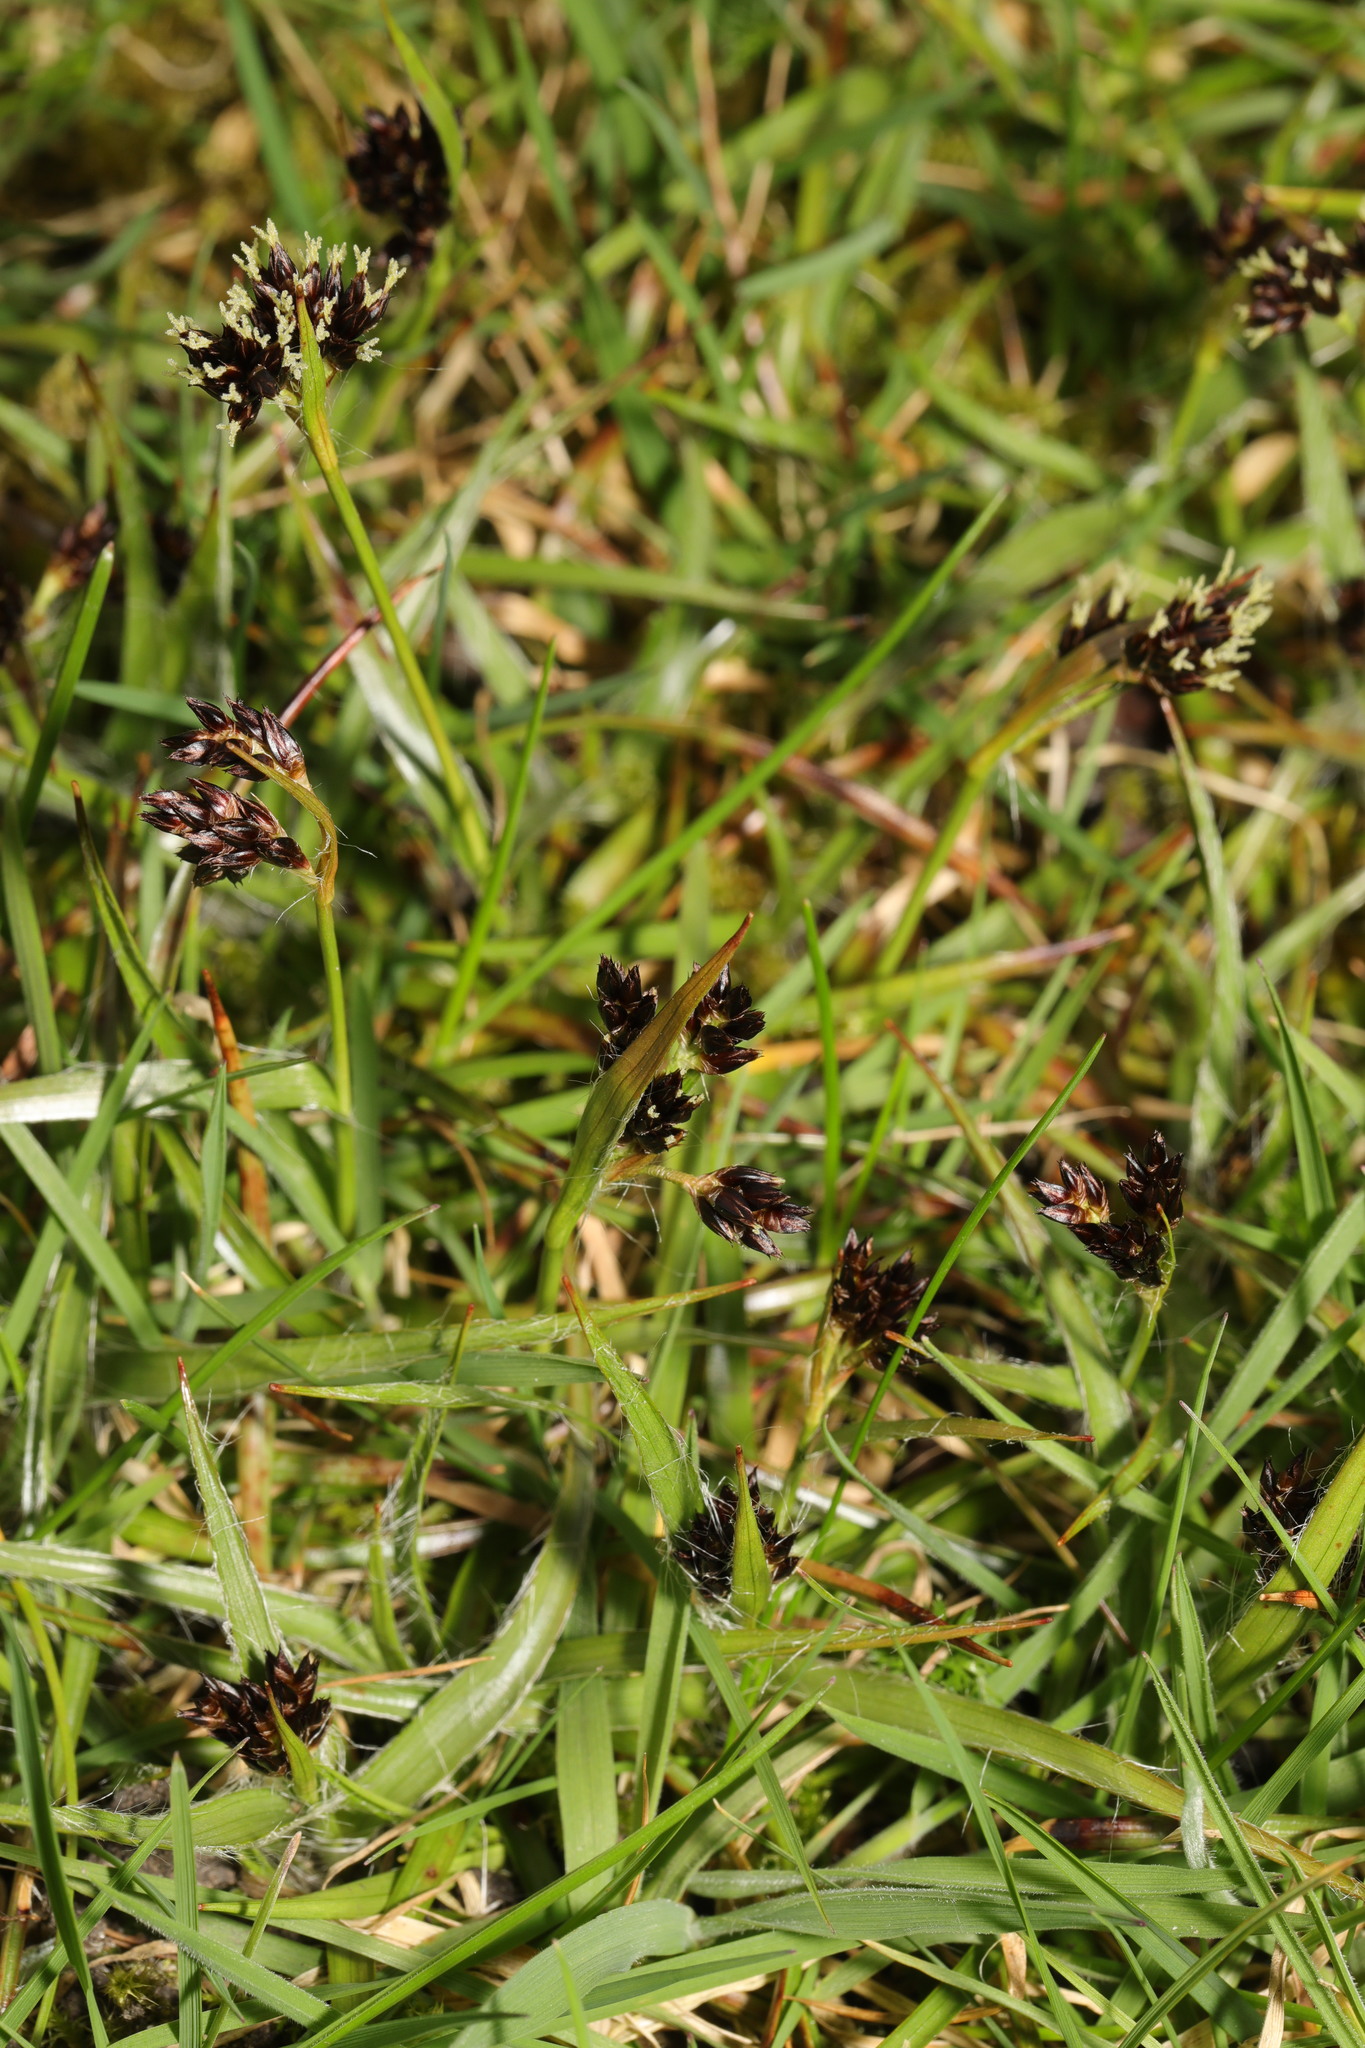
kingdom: Plantae
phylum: Tracheophyta
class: Liliopsida
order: Poales
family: Juncaceae
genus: Luzula
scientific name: Luzula campestris
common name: Field wood-rush
